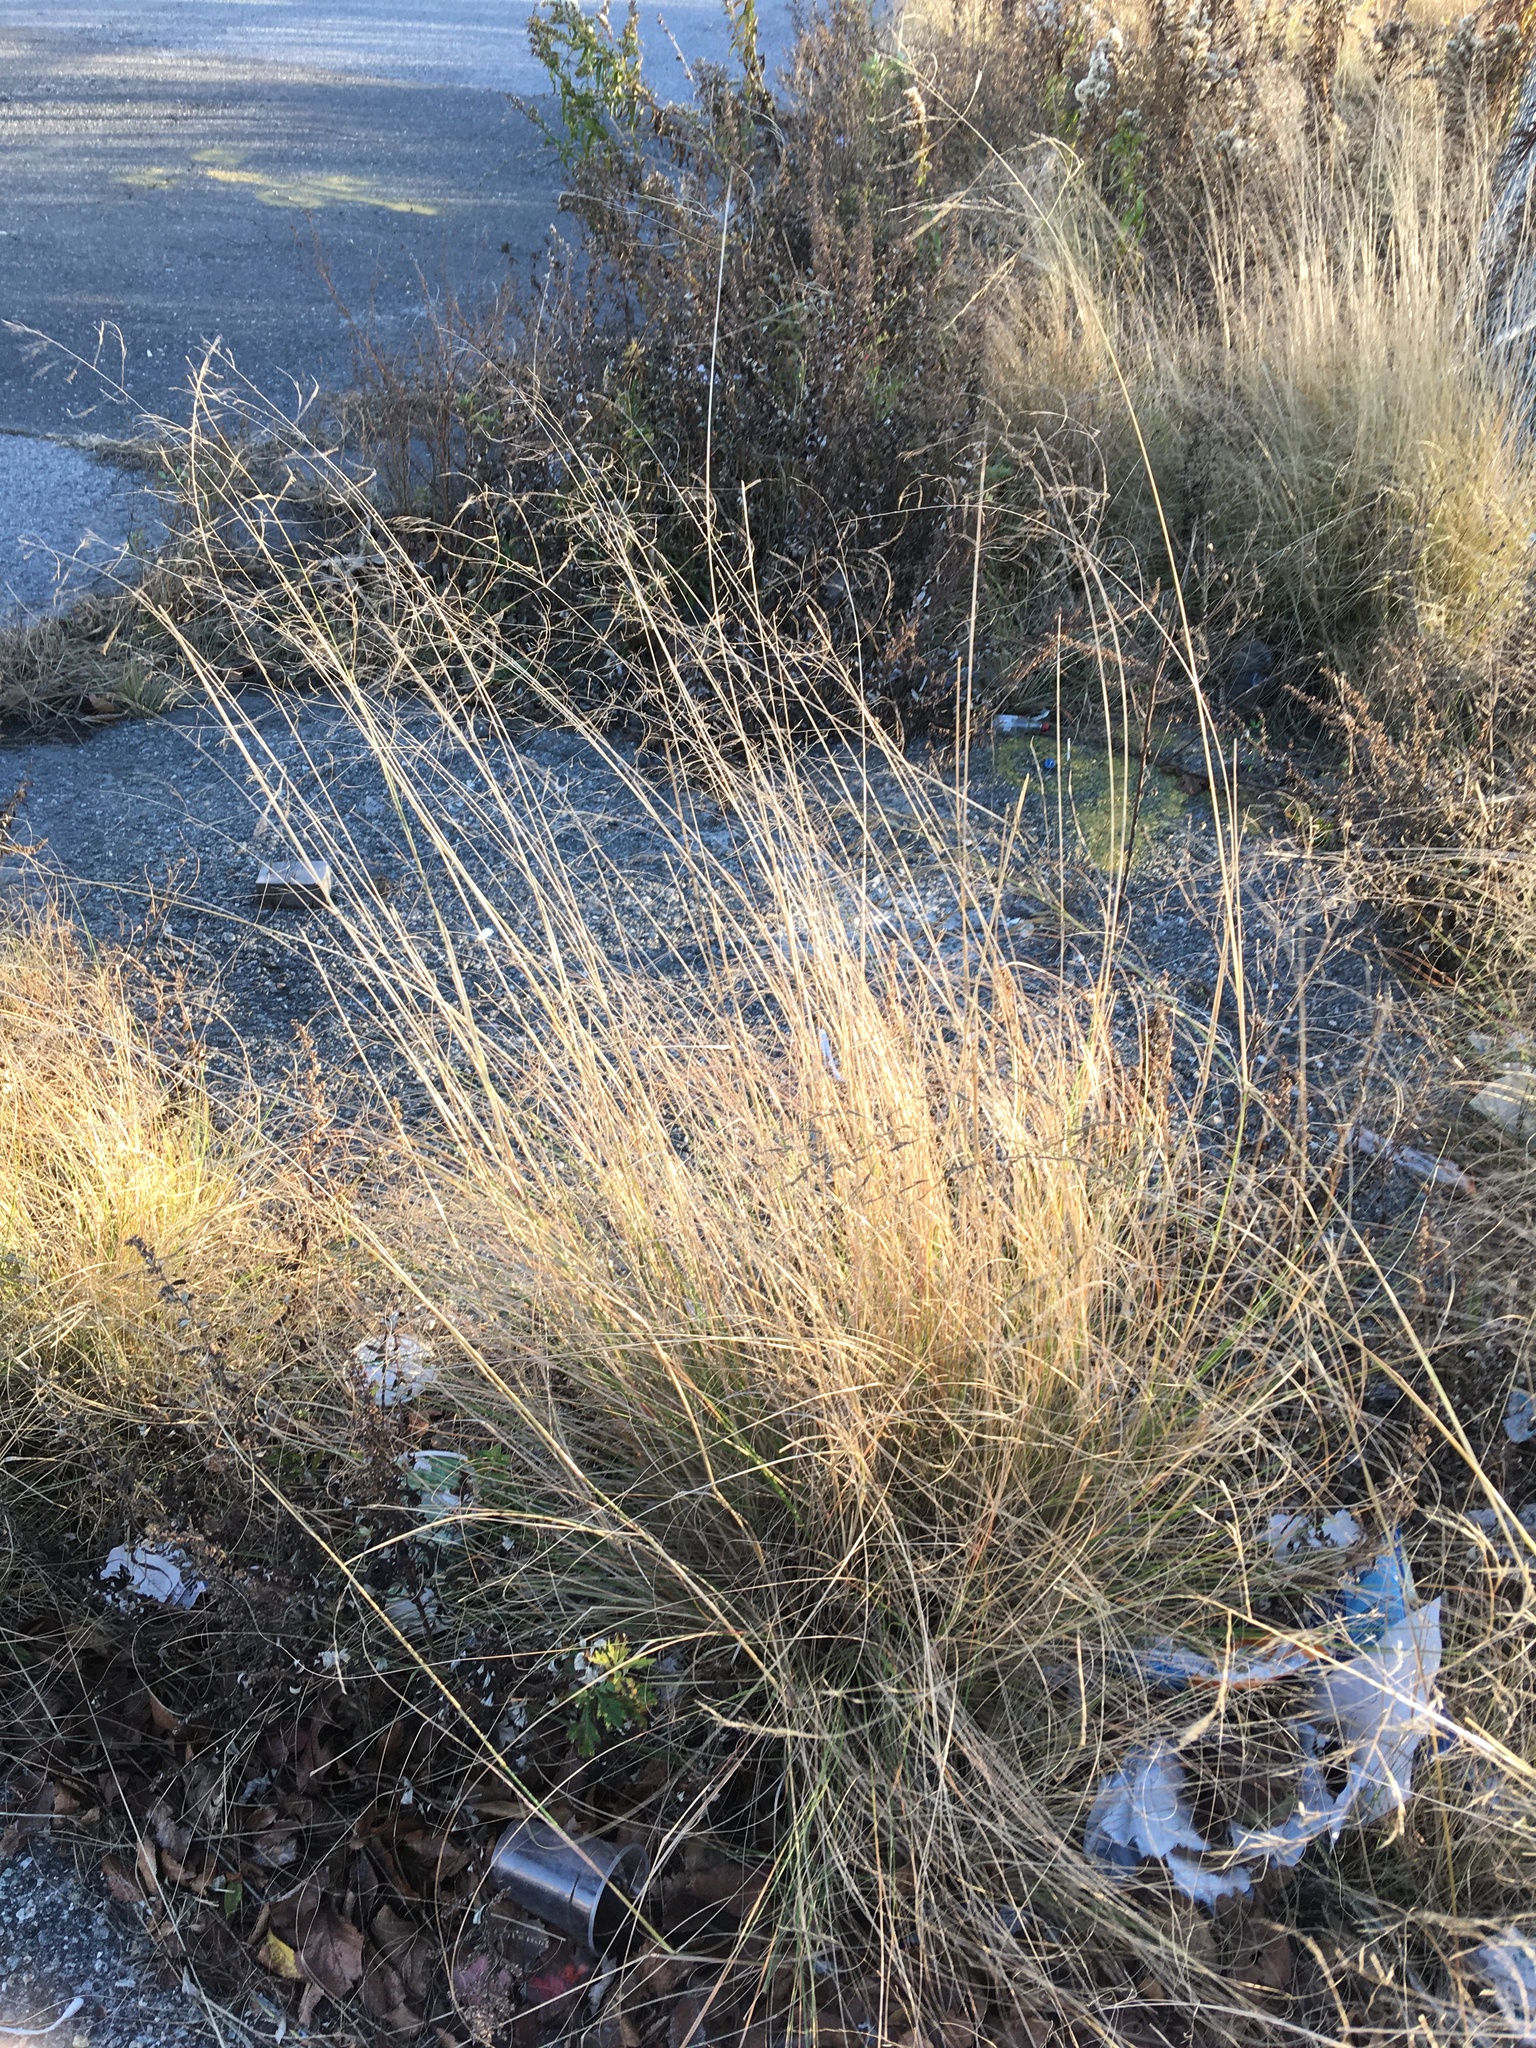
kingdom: Plantae
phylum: Tracheophyta
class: Liliopsida
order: Poales
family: Poaceae
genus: Eragrostis
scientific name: Eragrostis curvula
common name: African love-grass
